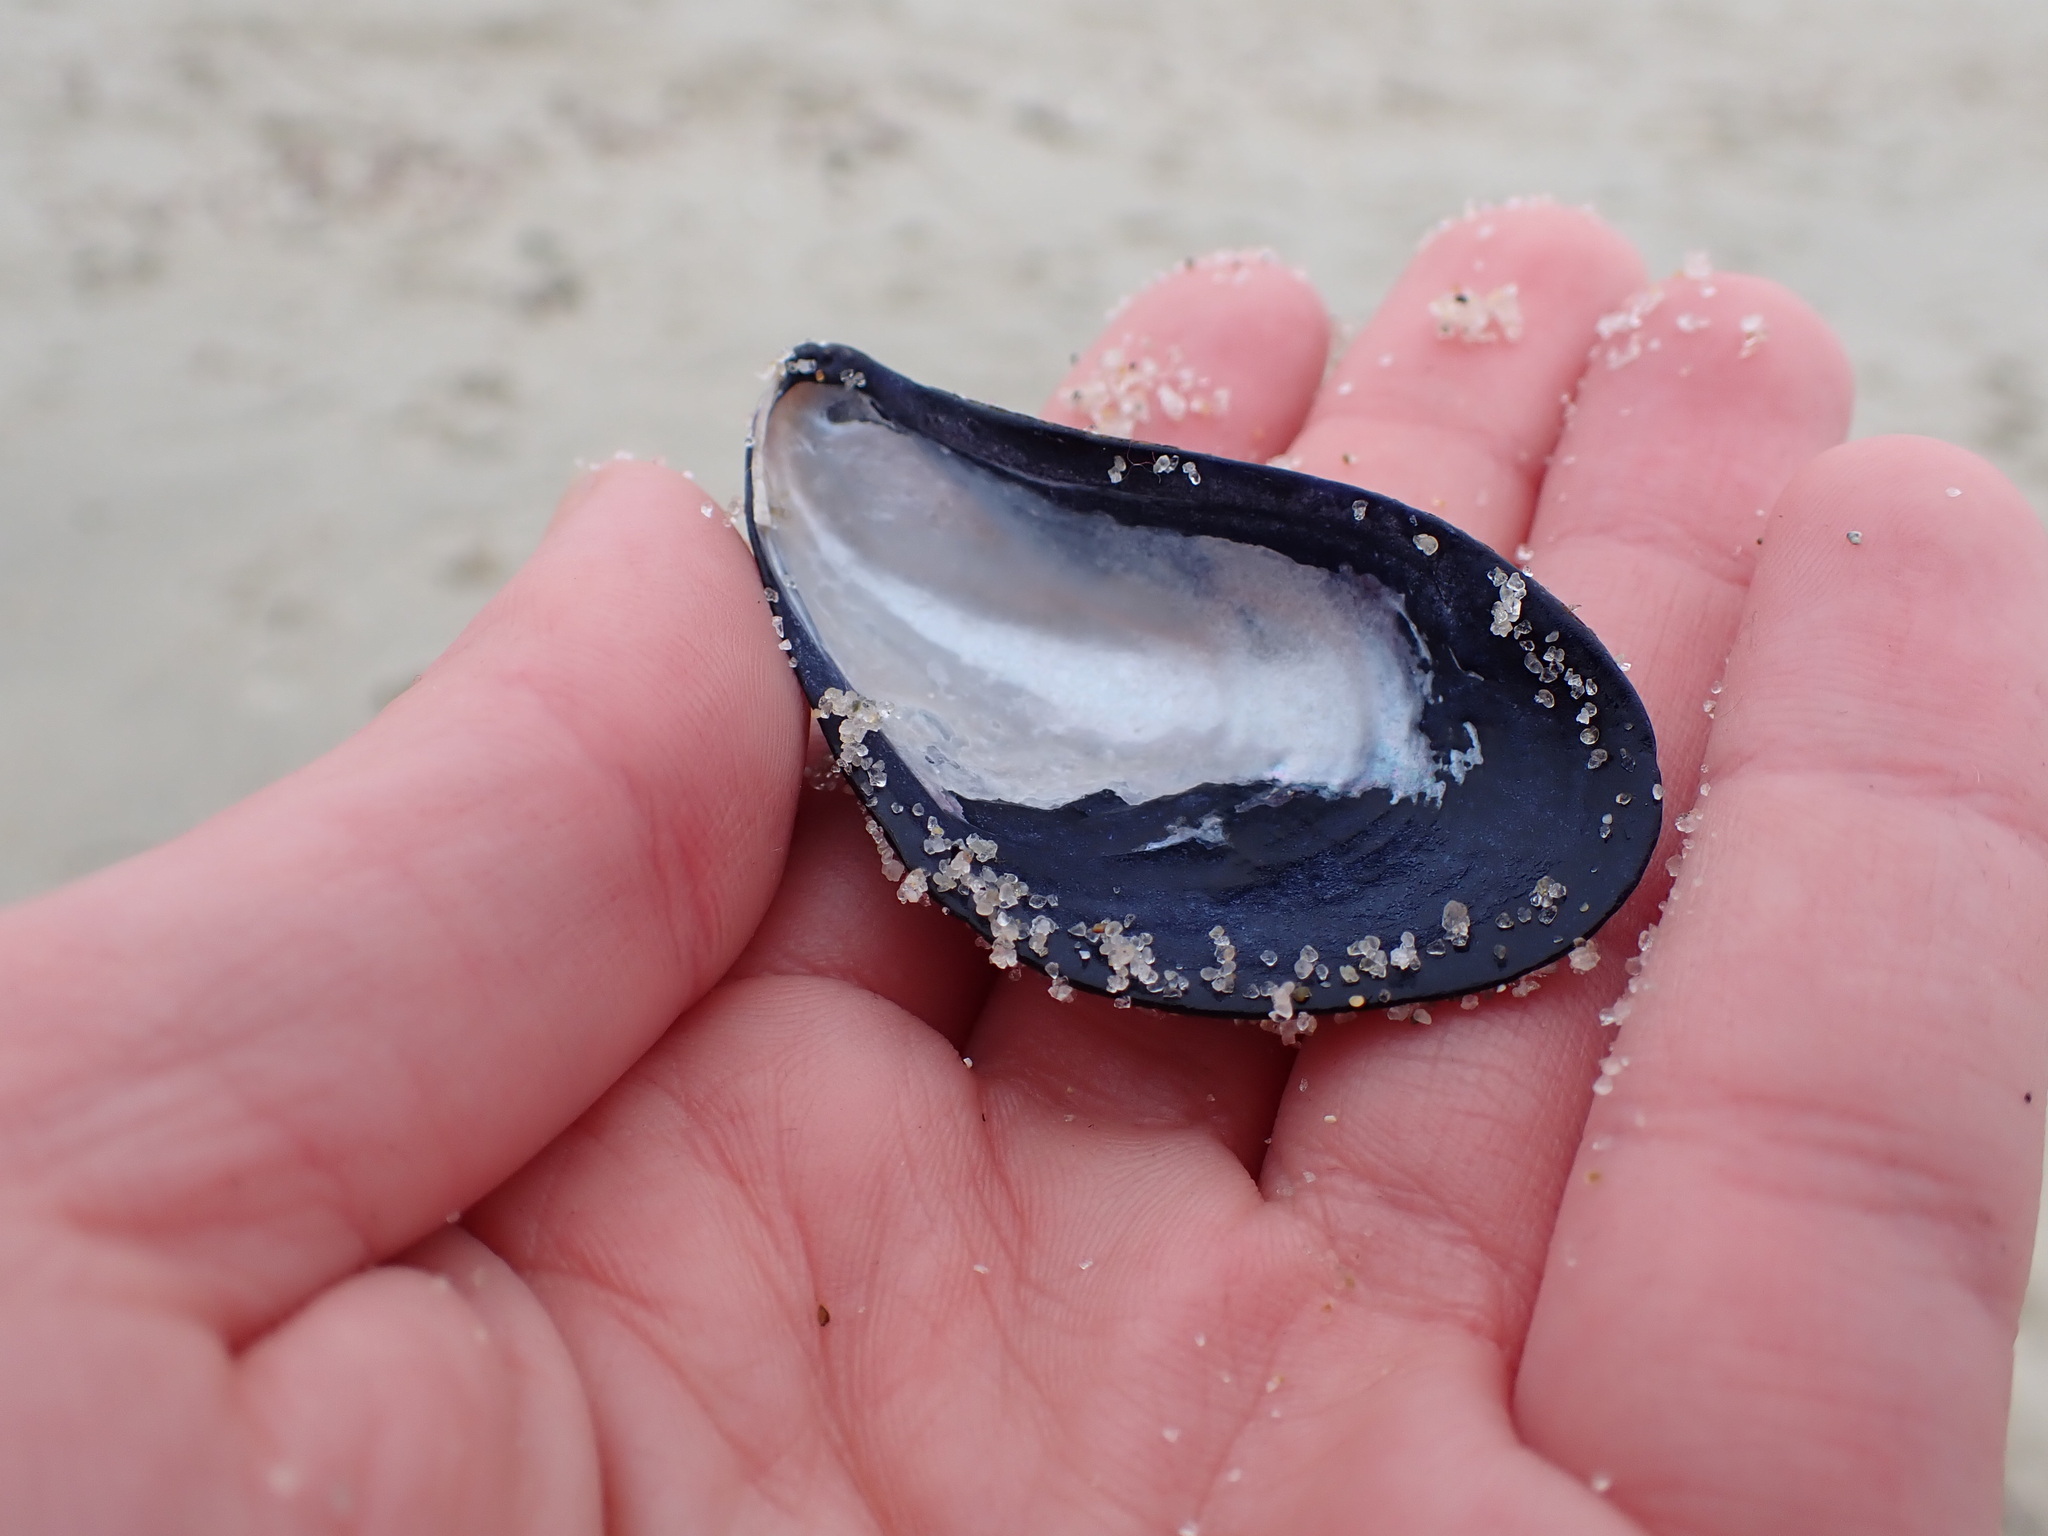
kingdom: Animalia
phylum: Mollusca
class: Bivalvia
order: Mytilida
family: Mytilidae
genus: Mytilus
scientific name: Mytilus edulis
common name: Blue mussel
